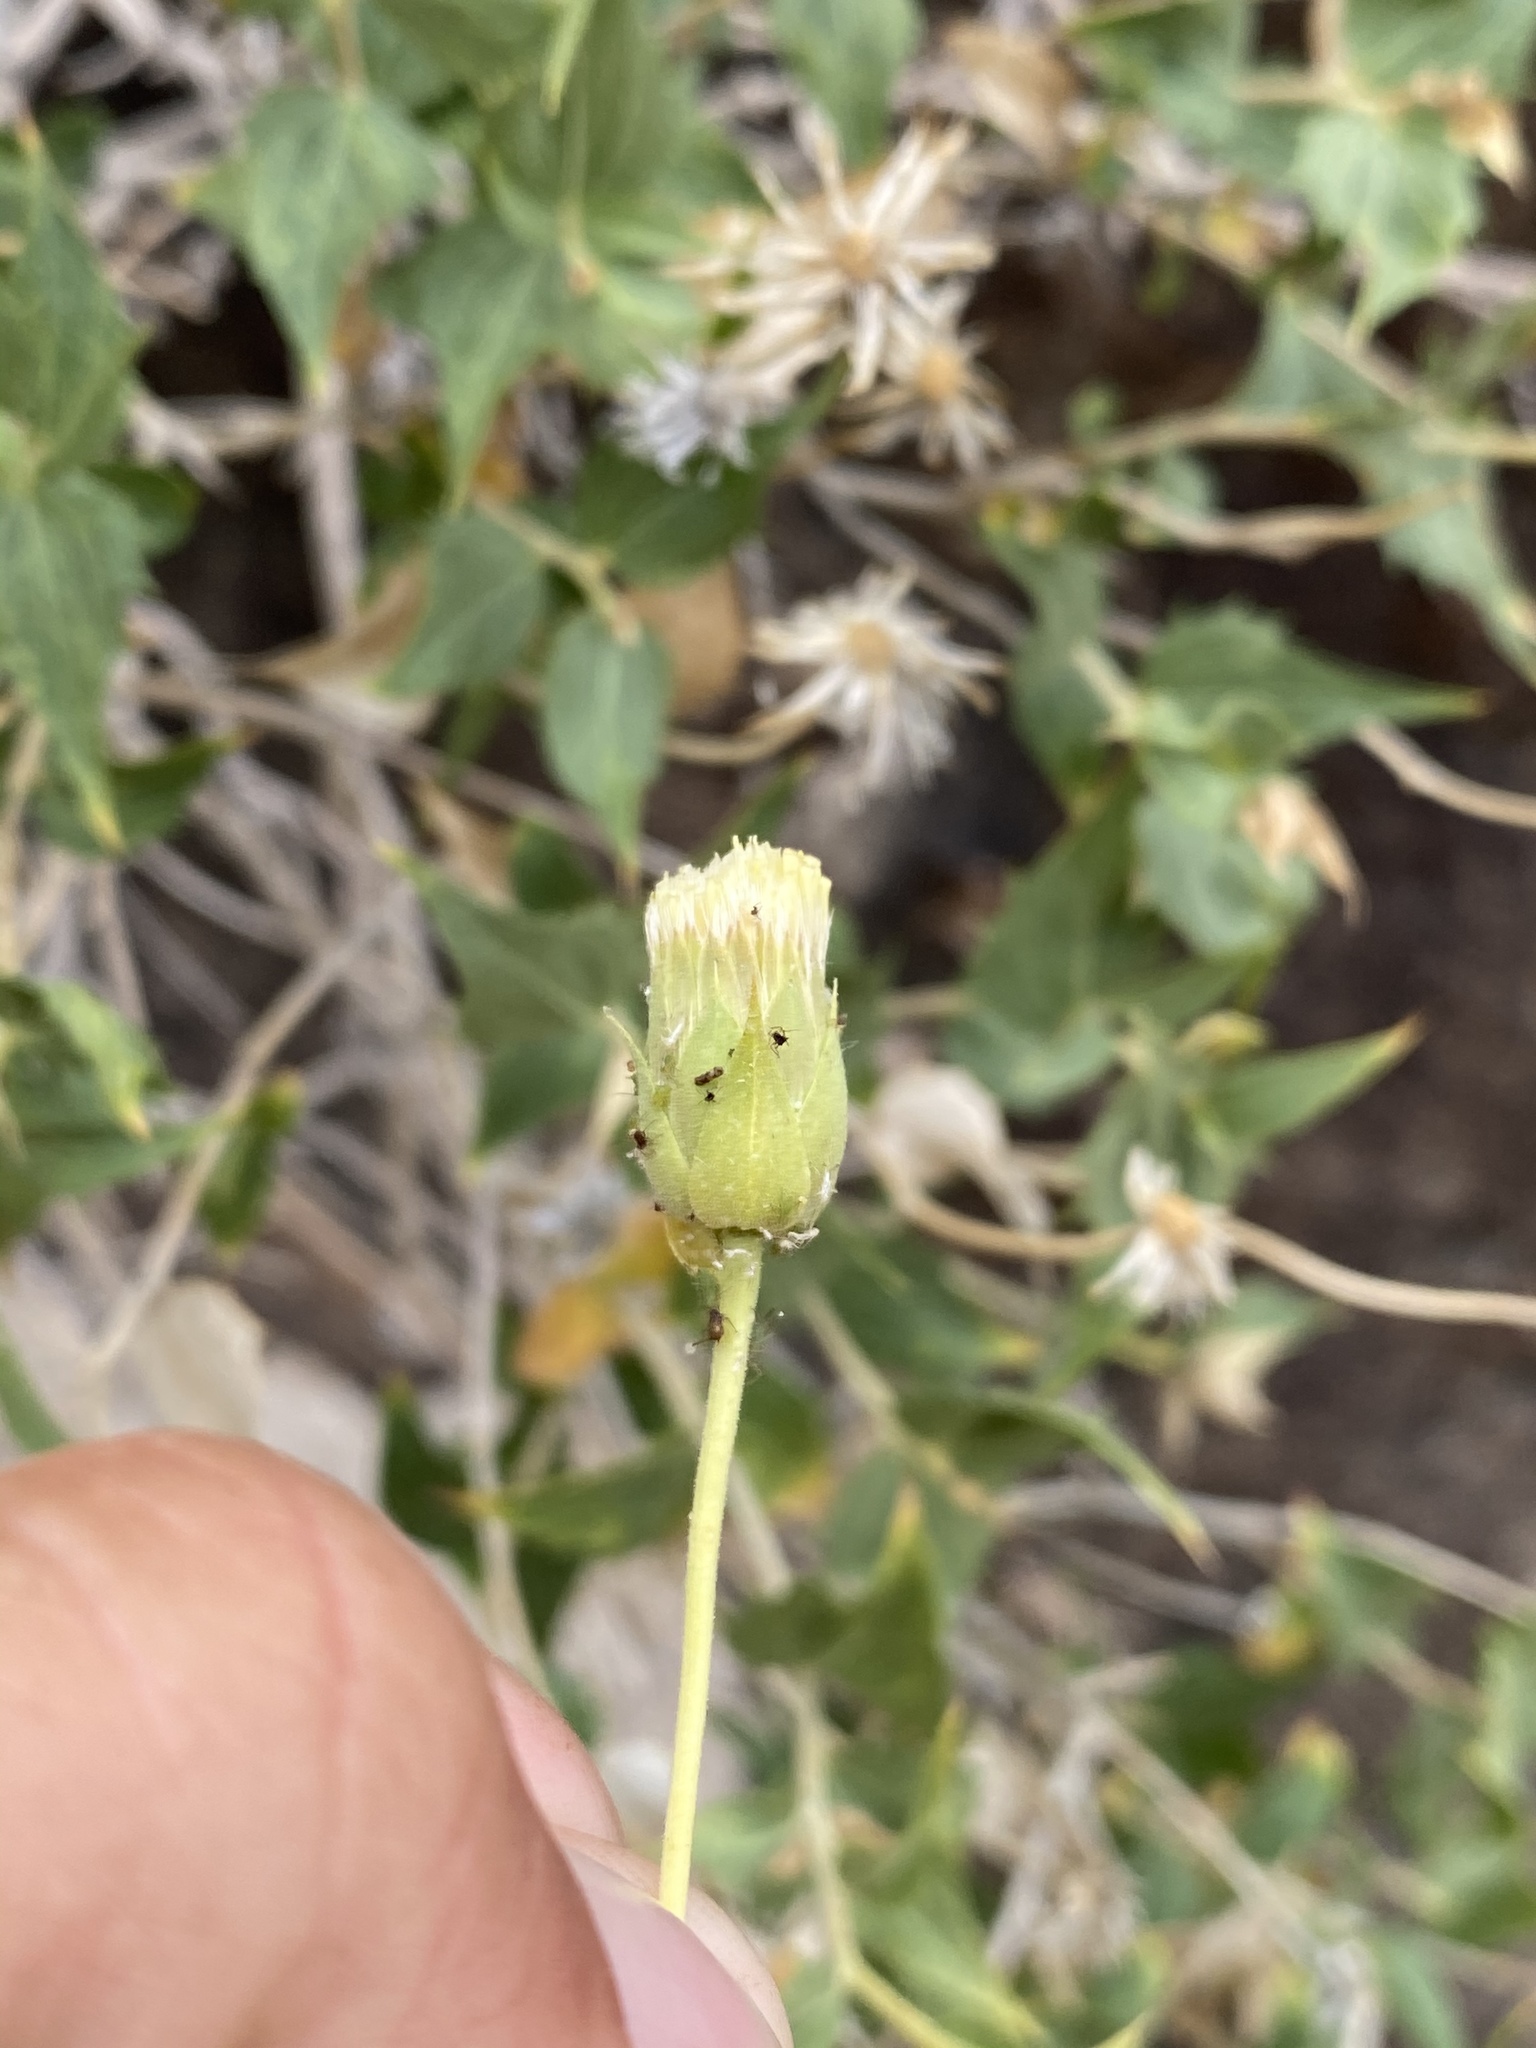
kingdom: Plantae
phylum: Tracheophyta
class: Magnoliopsida
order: Asterales
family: Asteraceae
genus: Brickellia
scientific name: Brickellia atractyloides
